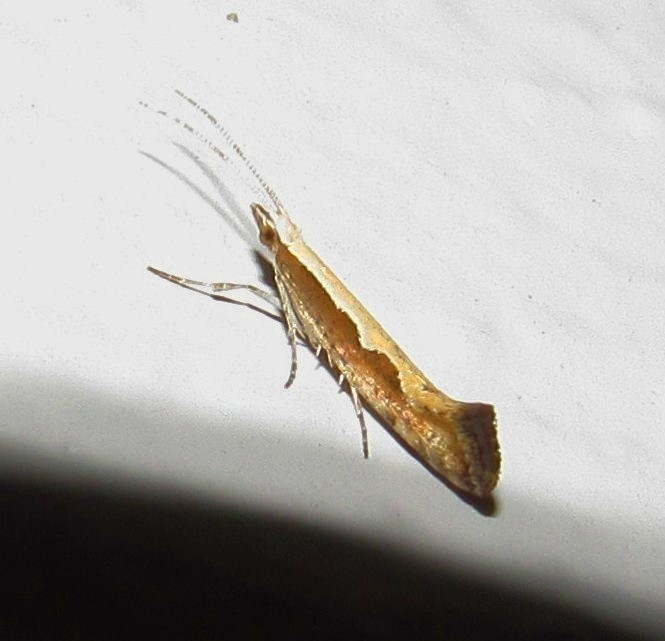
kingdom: Animalia
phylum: Arthropoda
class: Insecta
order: Lepidoptera
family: Plutellidae
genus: Plutella
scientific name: Plutella xylostella
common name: Diamond-back moth
